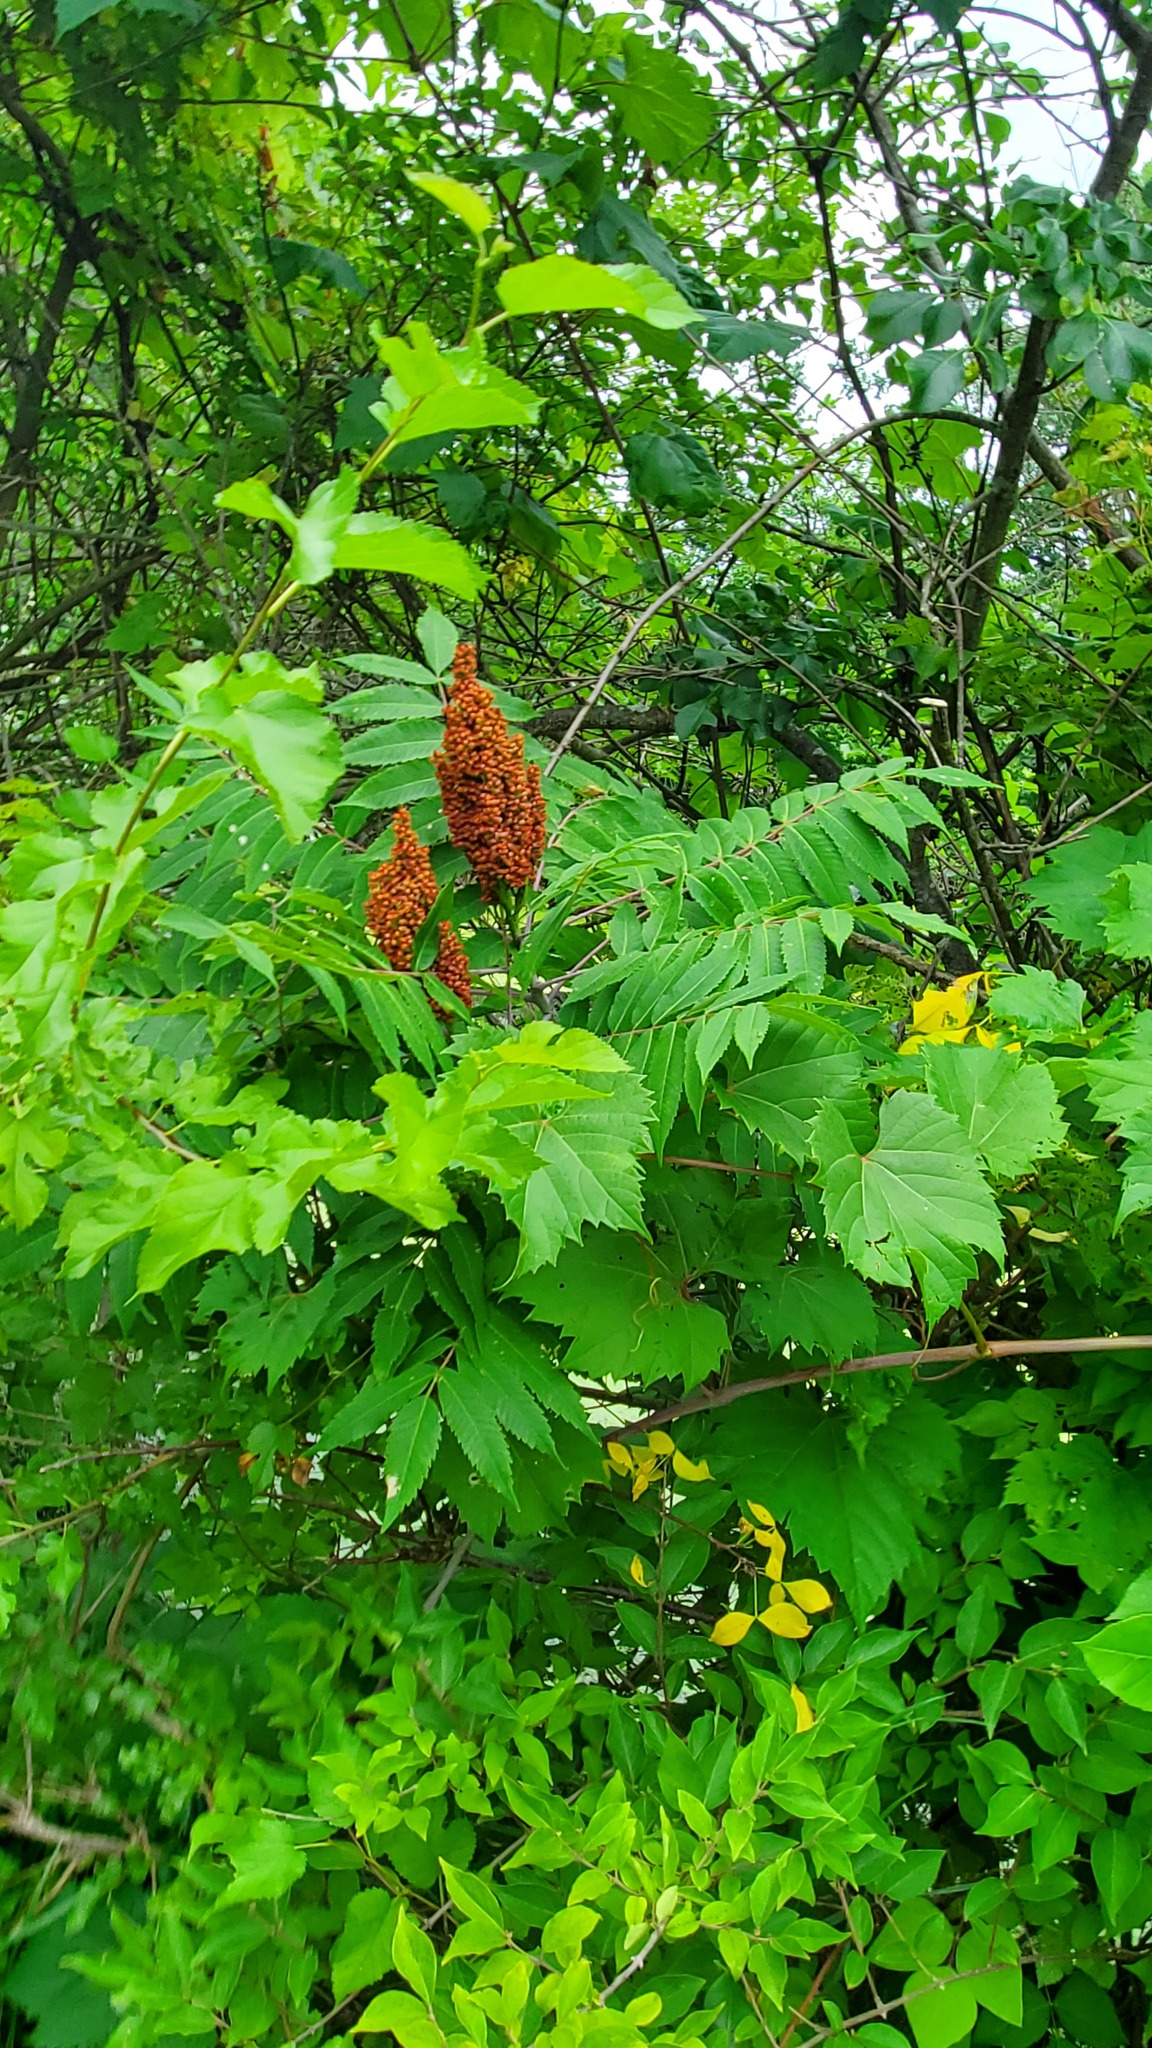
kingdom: Plantae
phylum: Tracheophyta
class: Magnoliopsida
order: Sapindales
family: Anacardiaceae
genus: Rhus
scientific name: Rhus glabra
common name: Scarlet sumac
